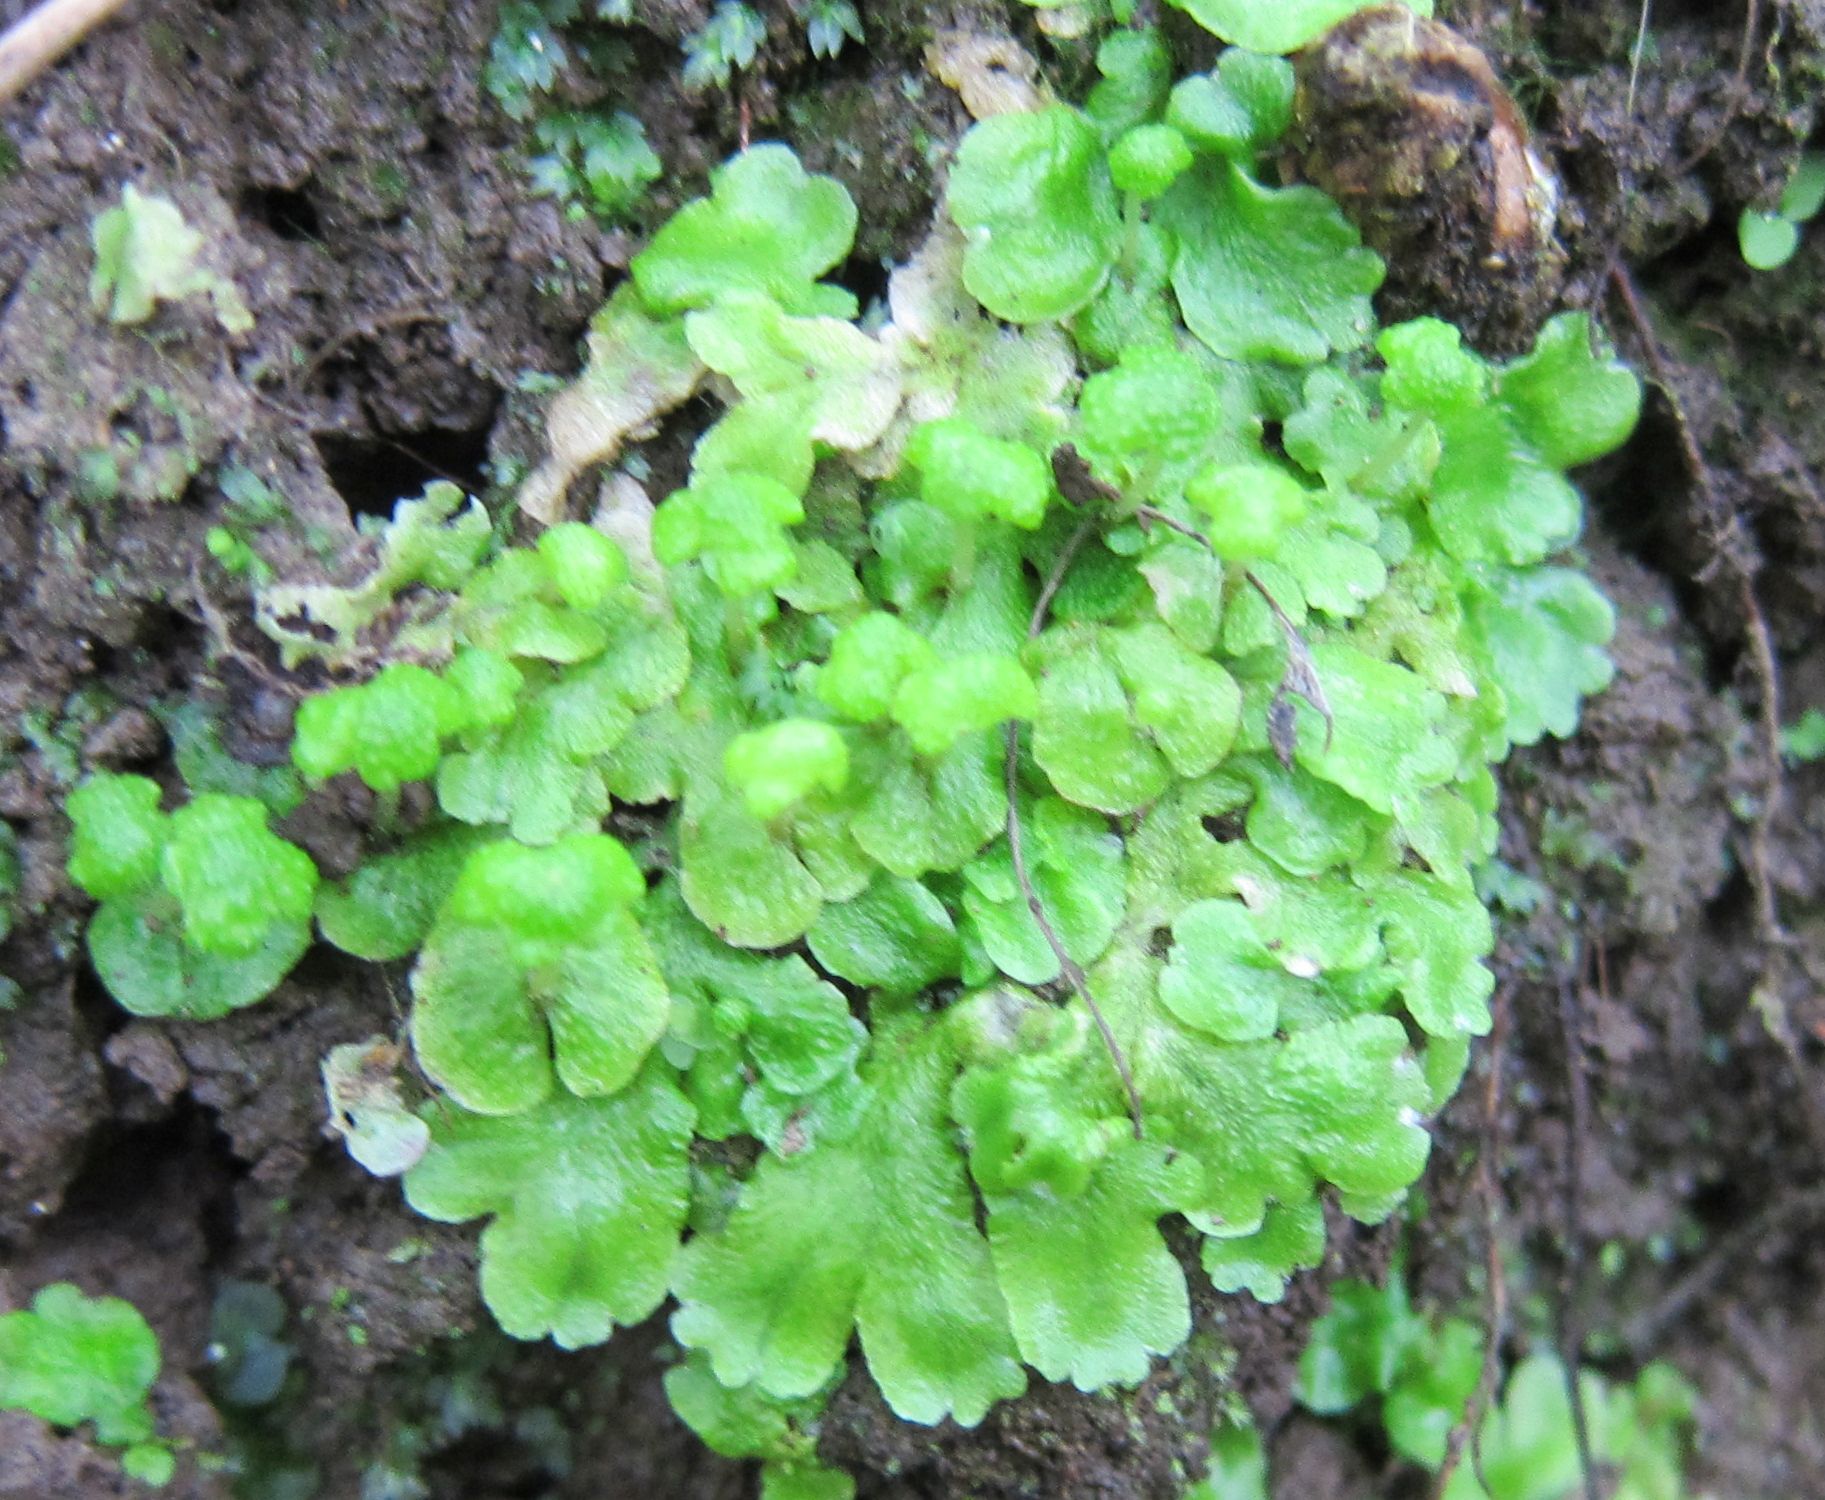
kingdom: Plantae
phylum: Marchantiophyta
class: Marchantiopsida
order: Marchantiales
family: Aytoniaceae
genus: Asterella
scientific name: Asterella tenera
